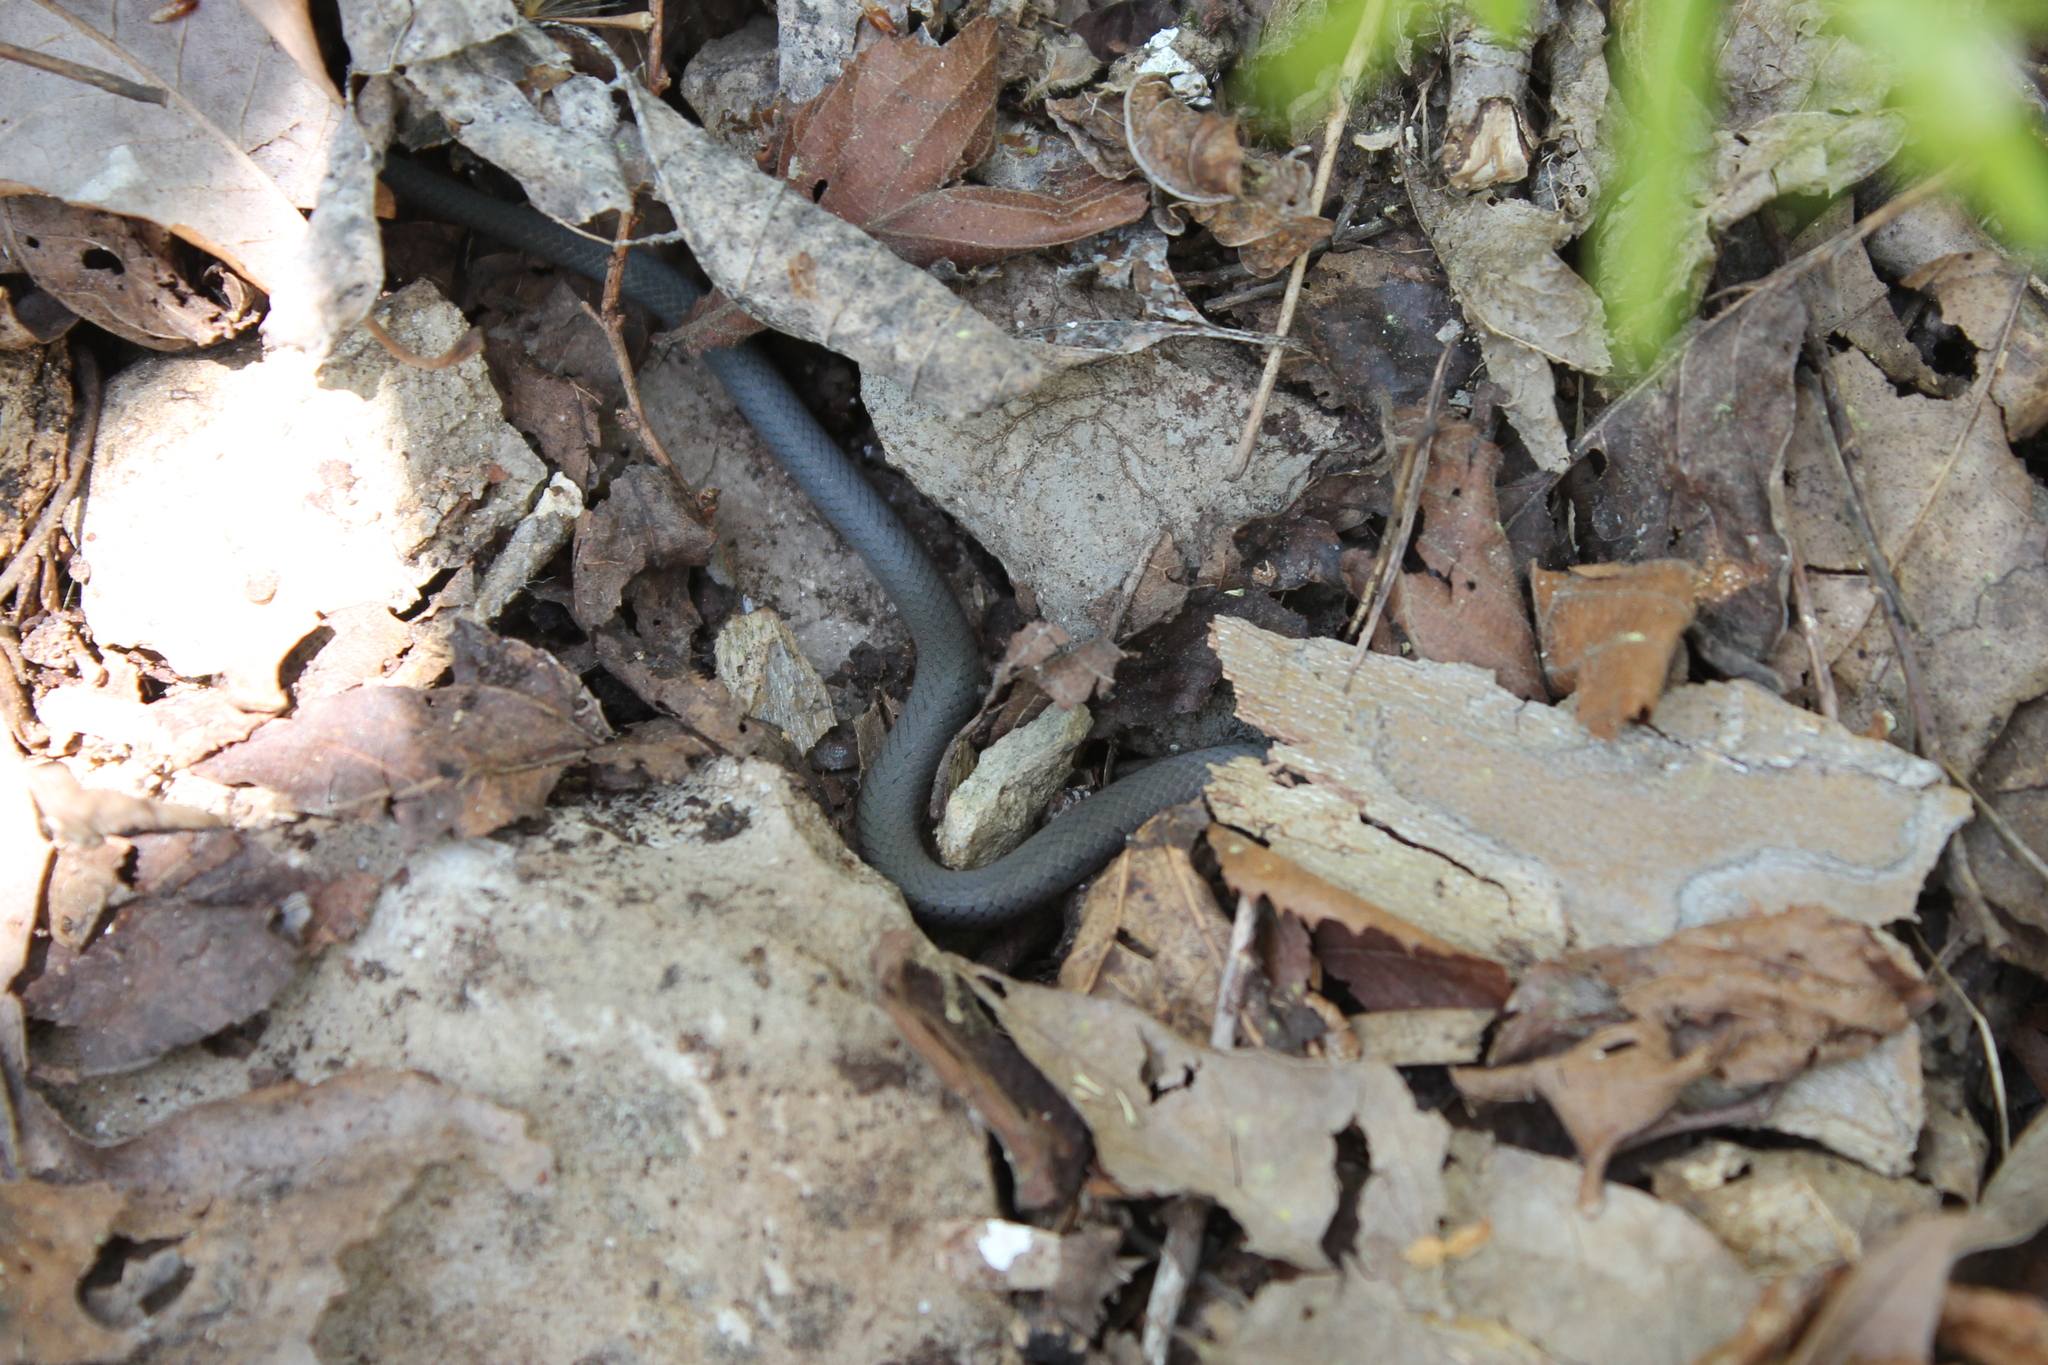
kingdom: Animalia
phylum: Chordata
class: Squamata
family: Colubridae
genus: Diadophis
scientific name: Diadophis punctatus
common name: Ringneck snake
